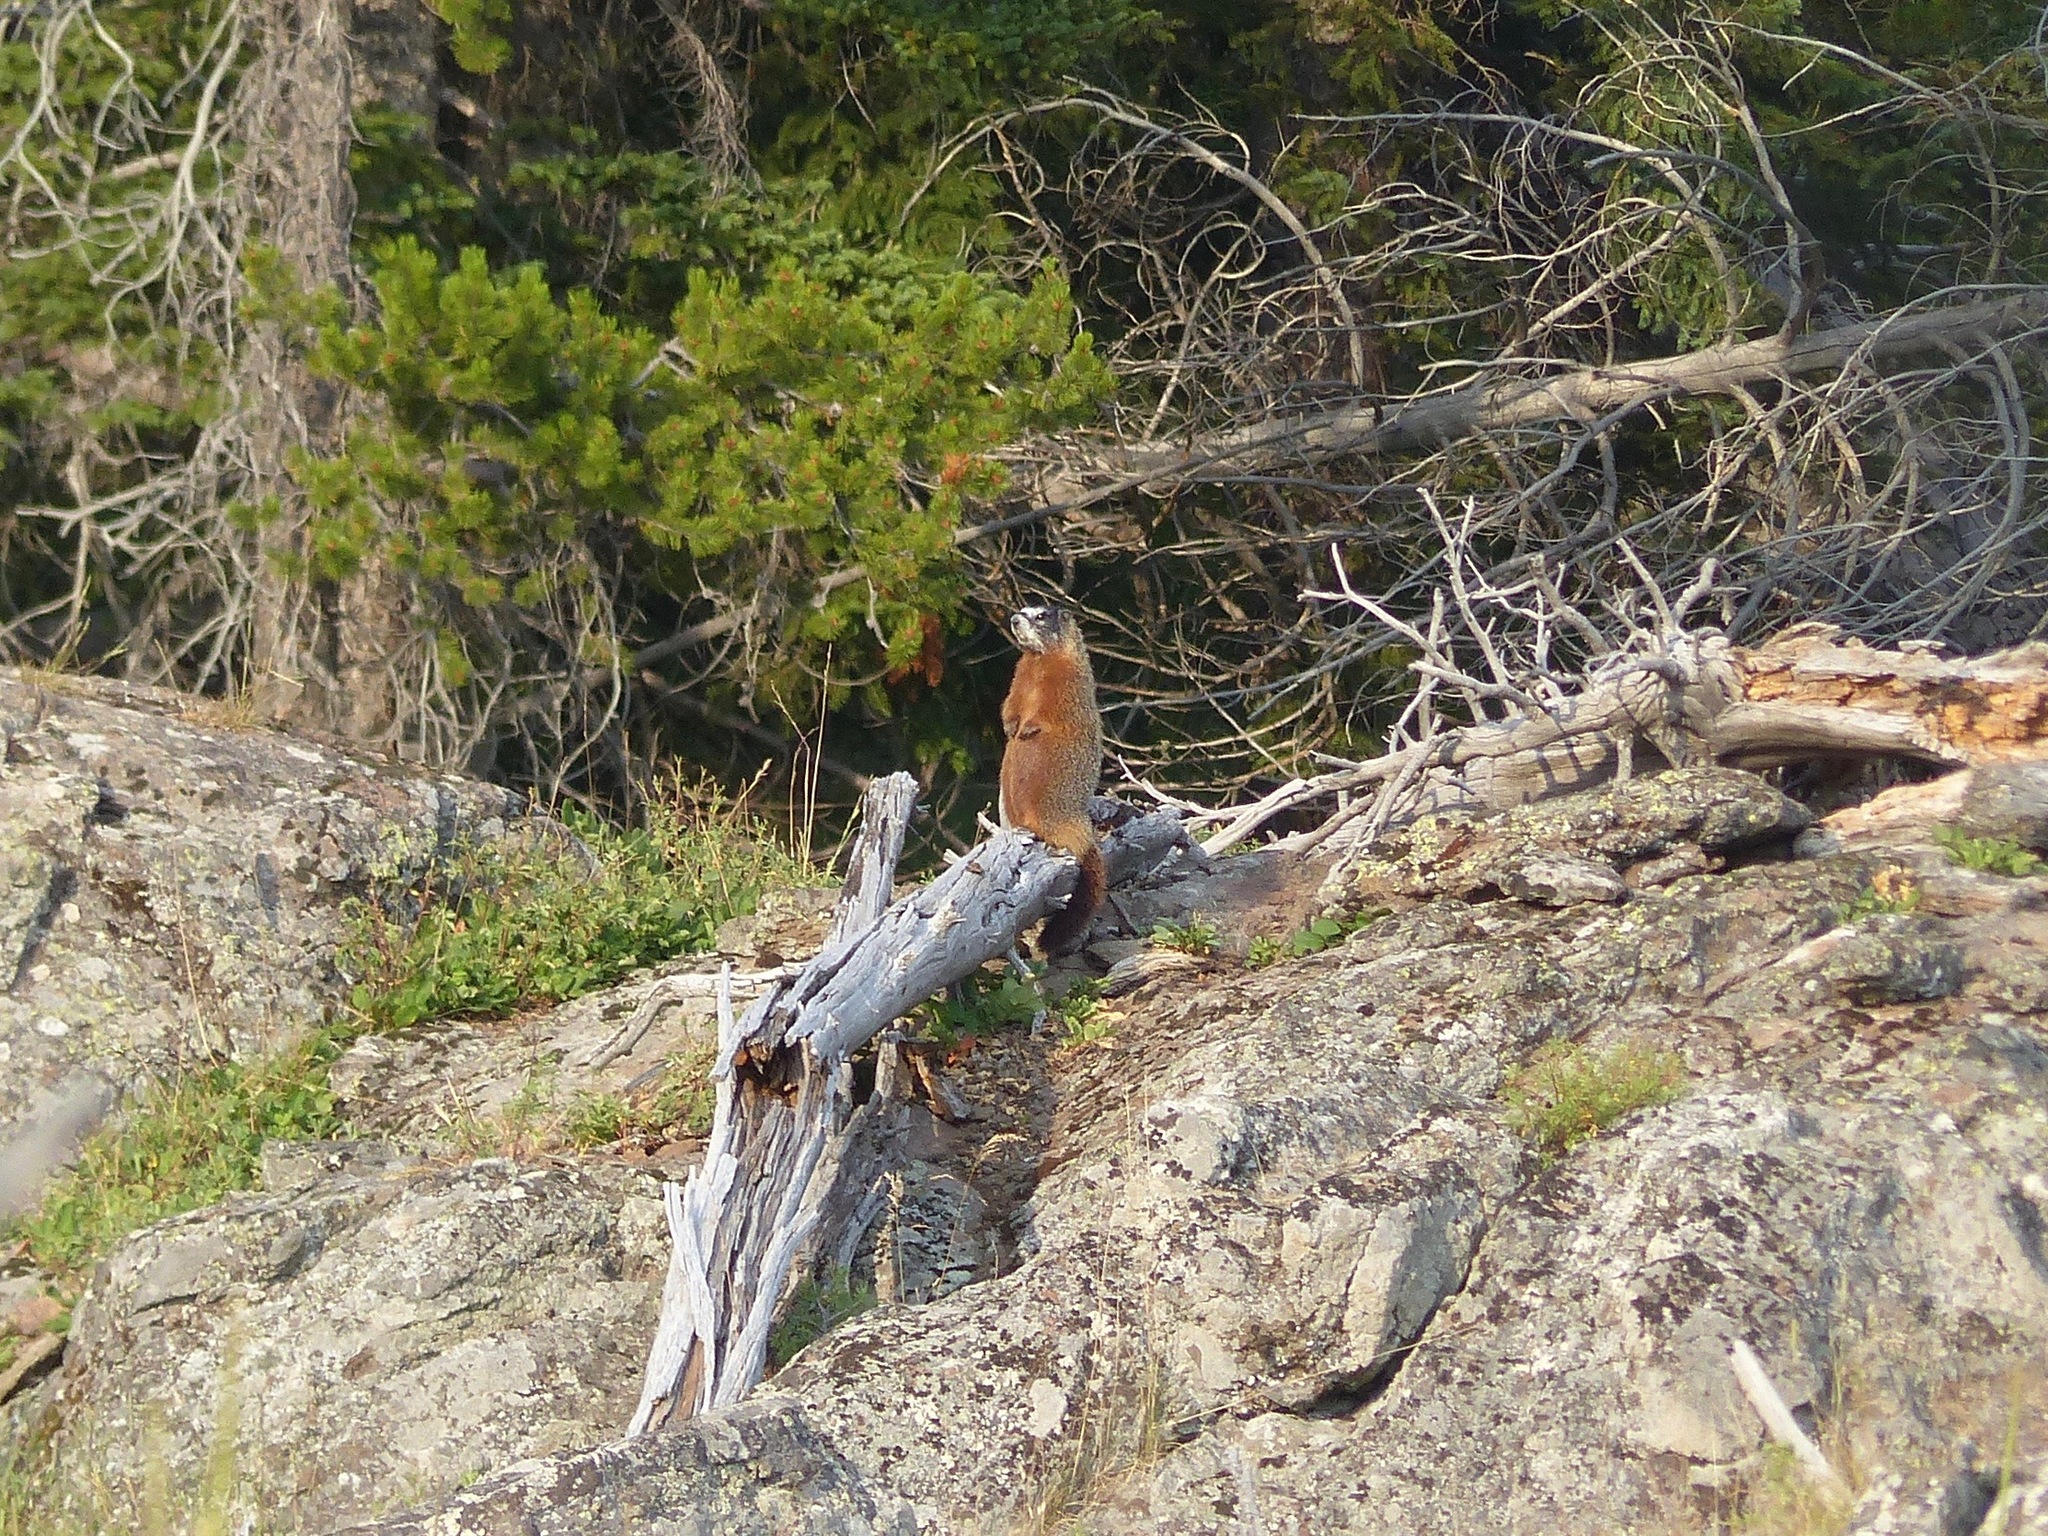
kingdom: Animalia
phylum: Chordata
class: Mammalia
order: Rodentia
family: Sciuridae
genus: Marmota
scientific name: Marmota flaviventris
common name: Yellow-bellied marmot
